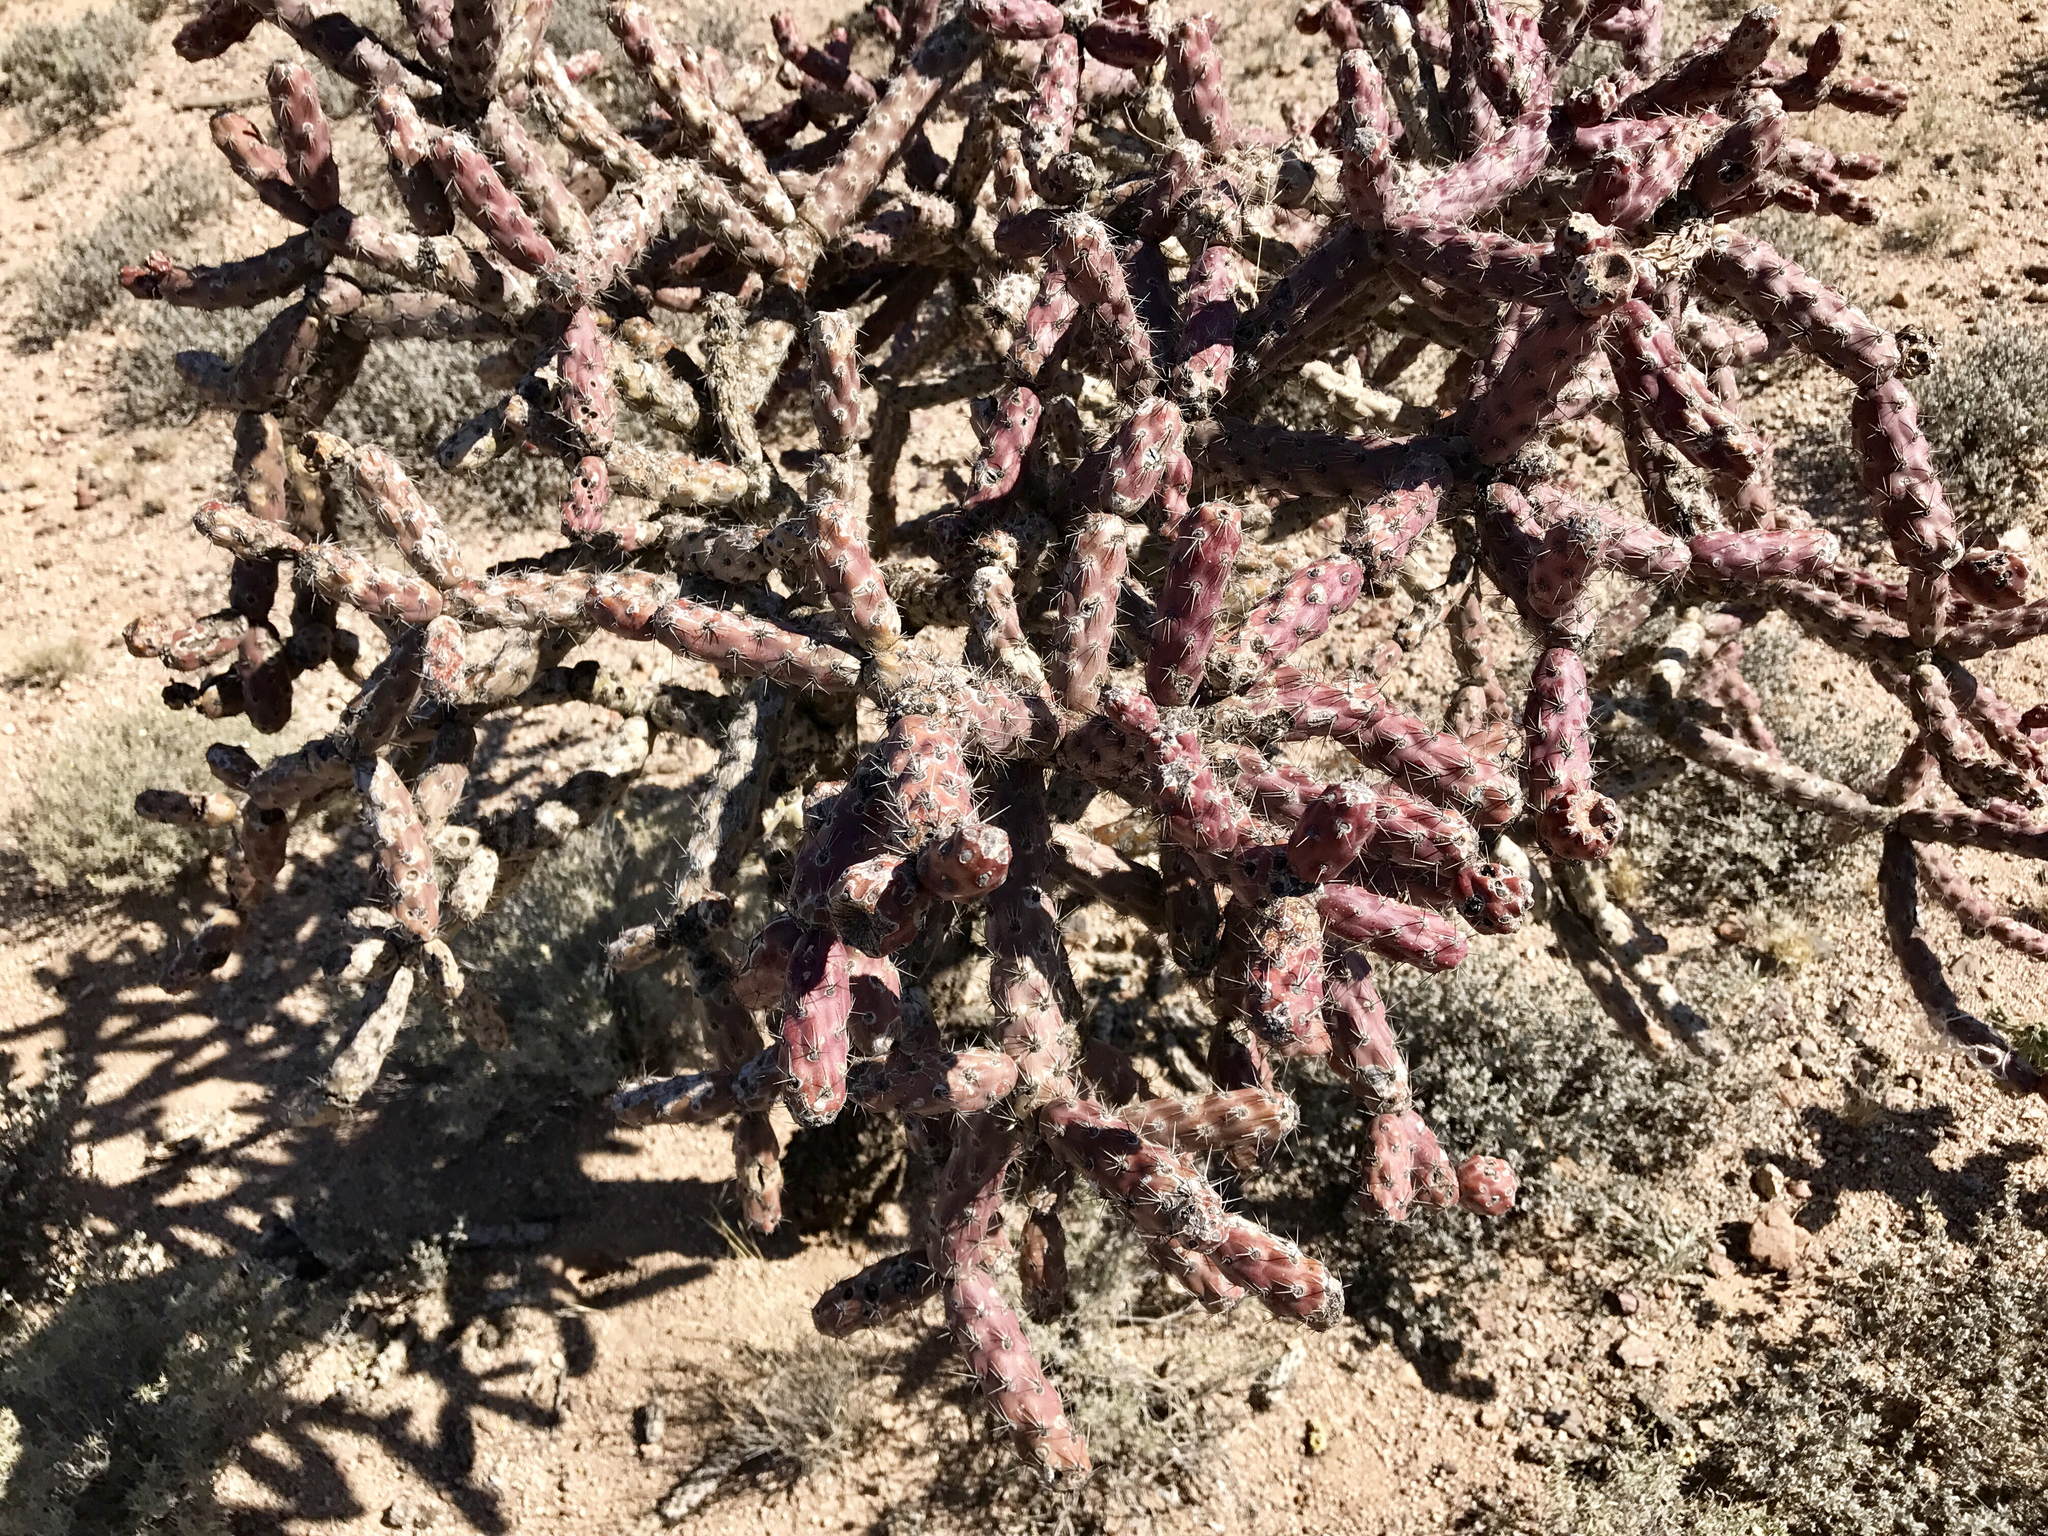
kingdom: Plantae
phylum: Tracheophyta
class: Magnoliopsida
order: Caryophyllales
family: Cactaceae
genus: Cylindropuntia
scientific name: Cylindropuntia thurberi
